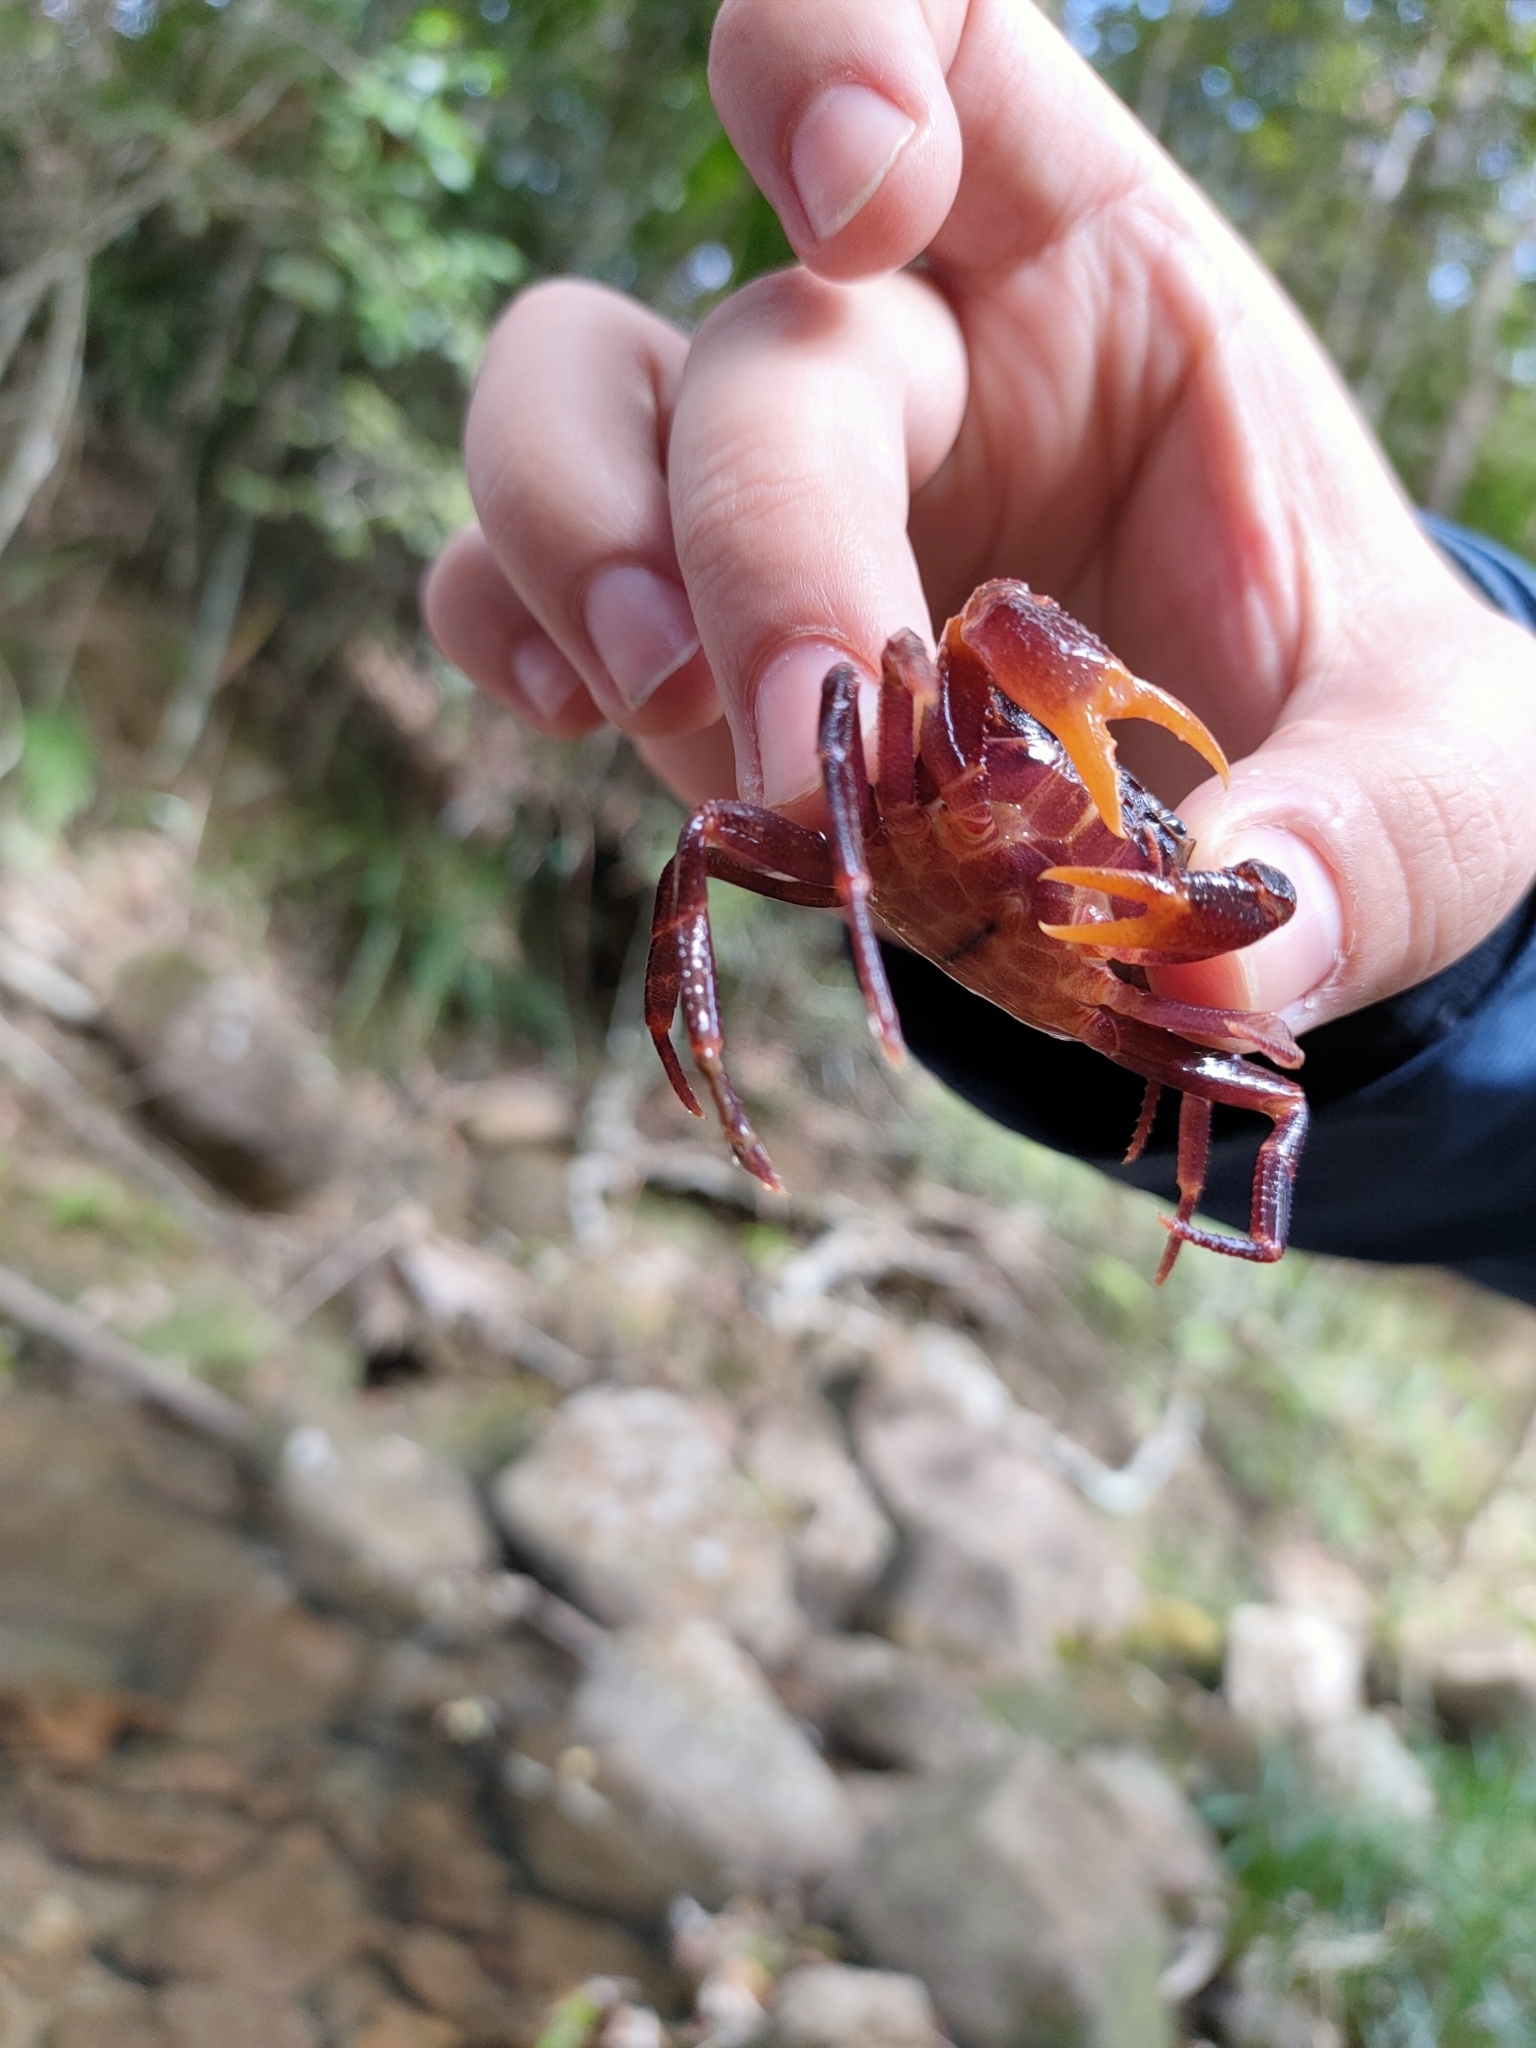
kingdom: Animalia
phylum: Arthropoda
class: Malacostraca
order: Decapoda
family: Potamidae
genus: Neotiwaripotamon
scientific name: Neotiwaripotamon jianfengense
